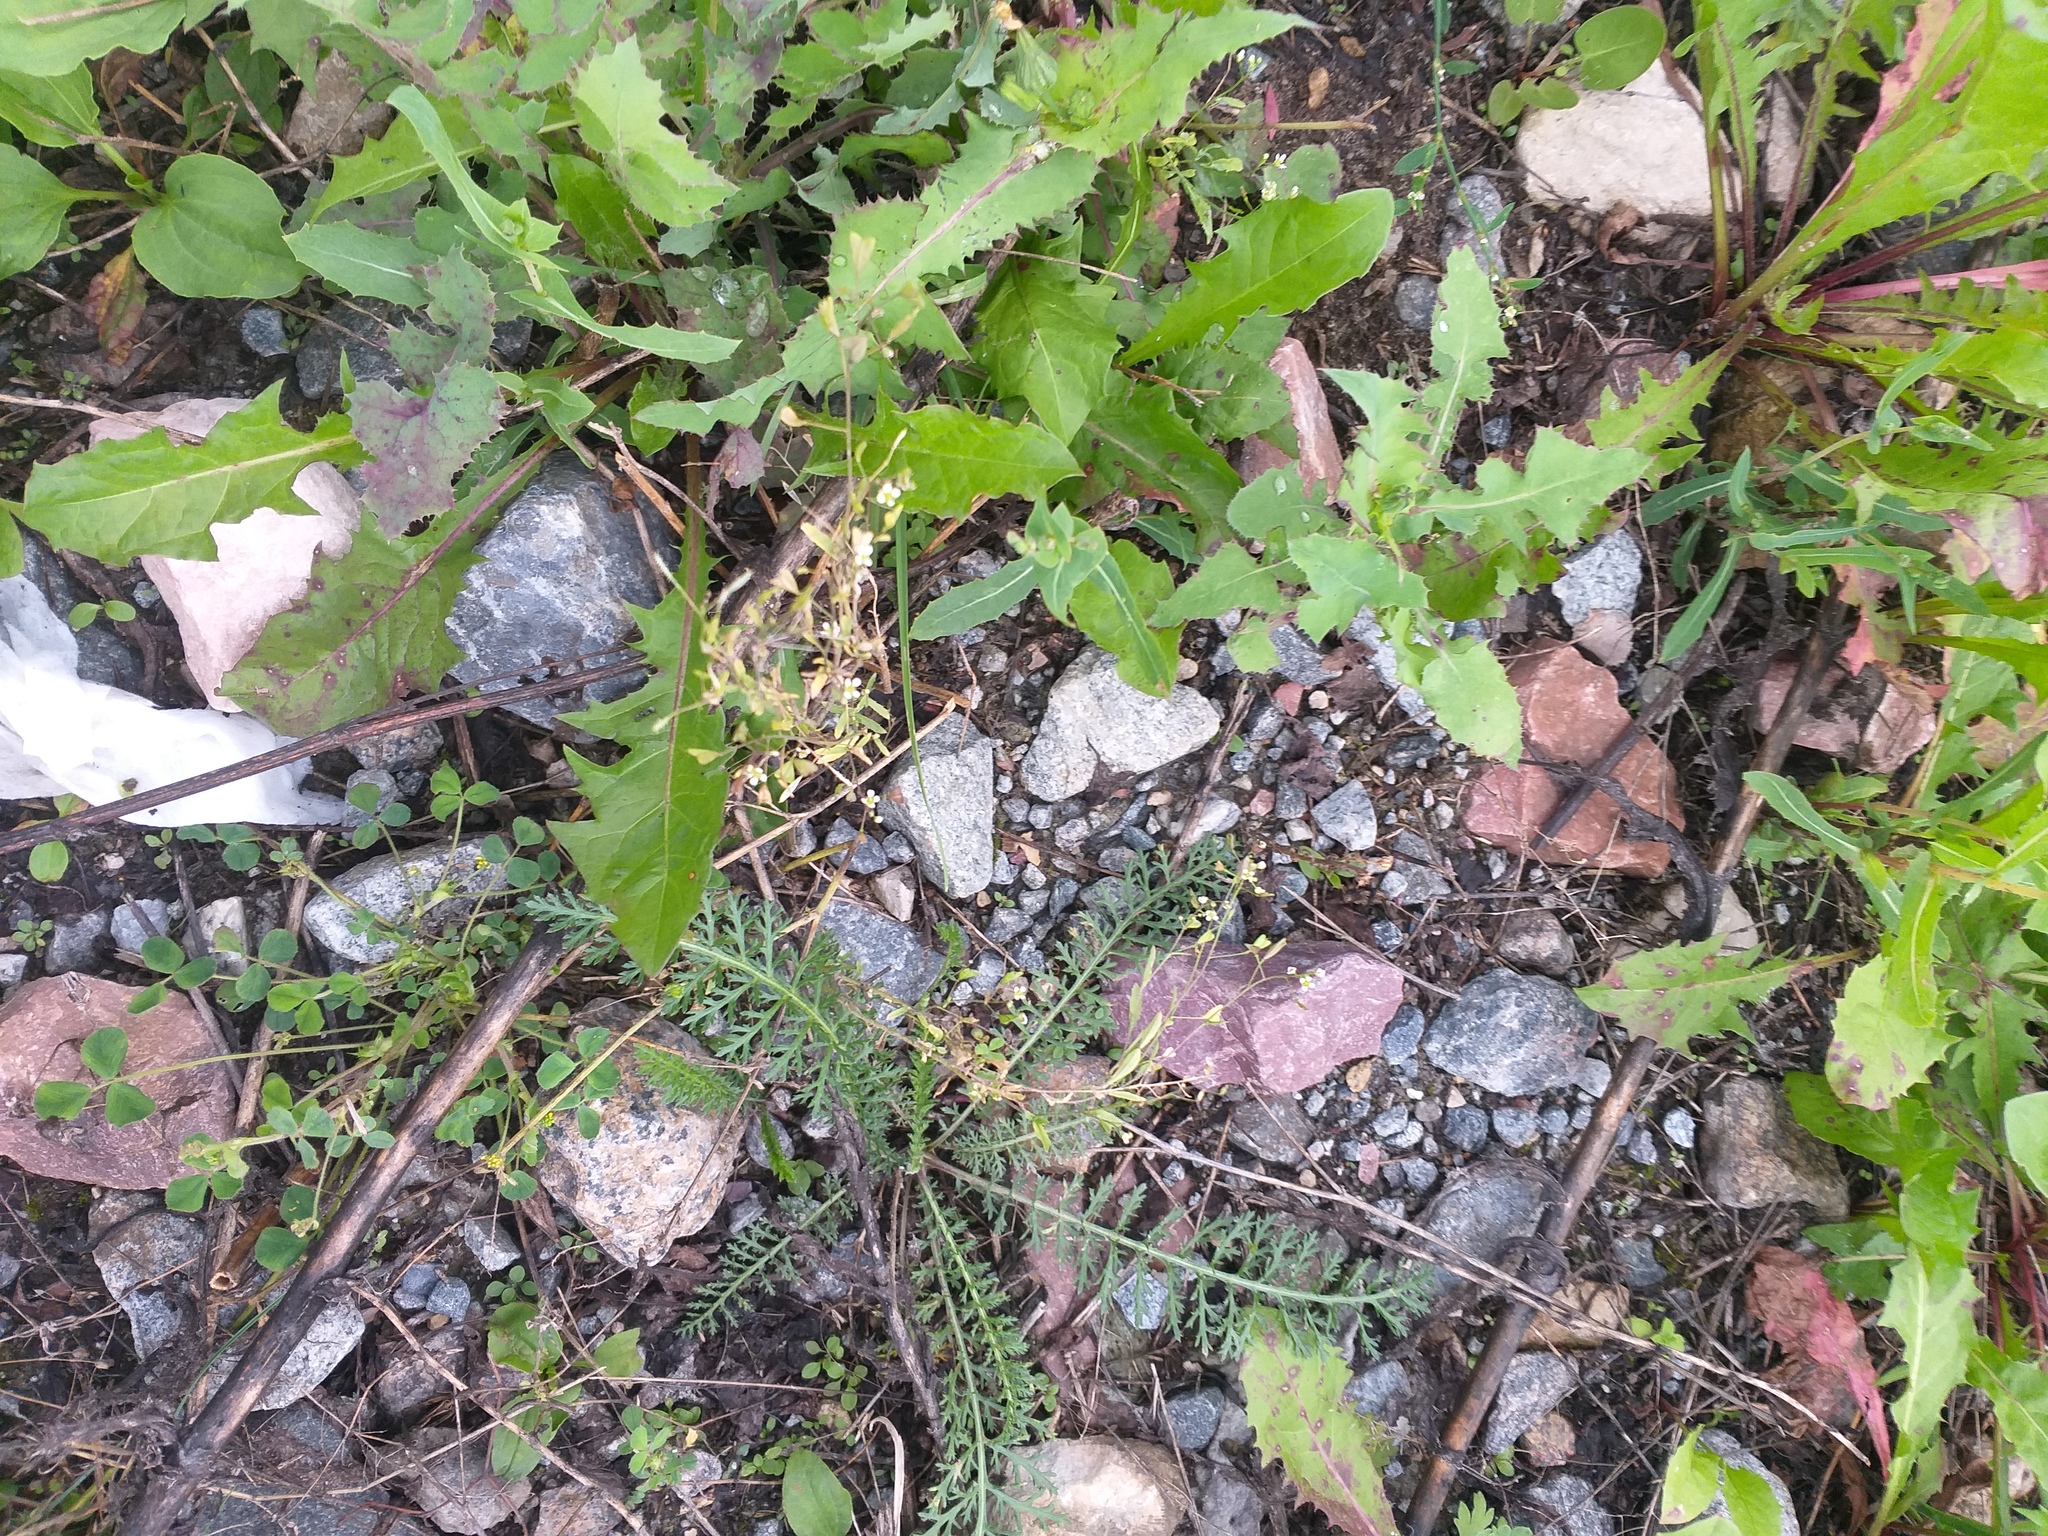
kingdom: Plantae
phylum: Tracheophyta
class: Magnoliopsida
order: Brassicales
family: Brassicaceae
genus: Capsella
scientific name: Capsella bursa-pastoris
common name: Shepherd's purse
